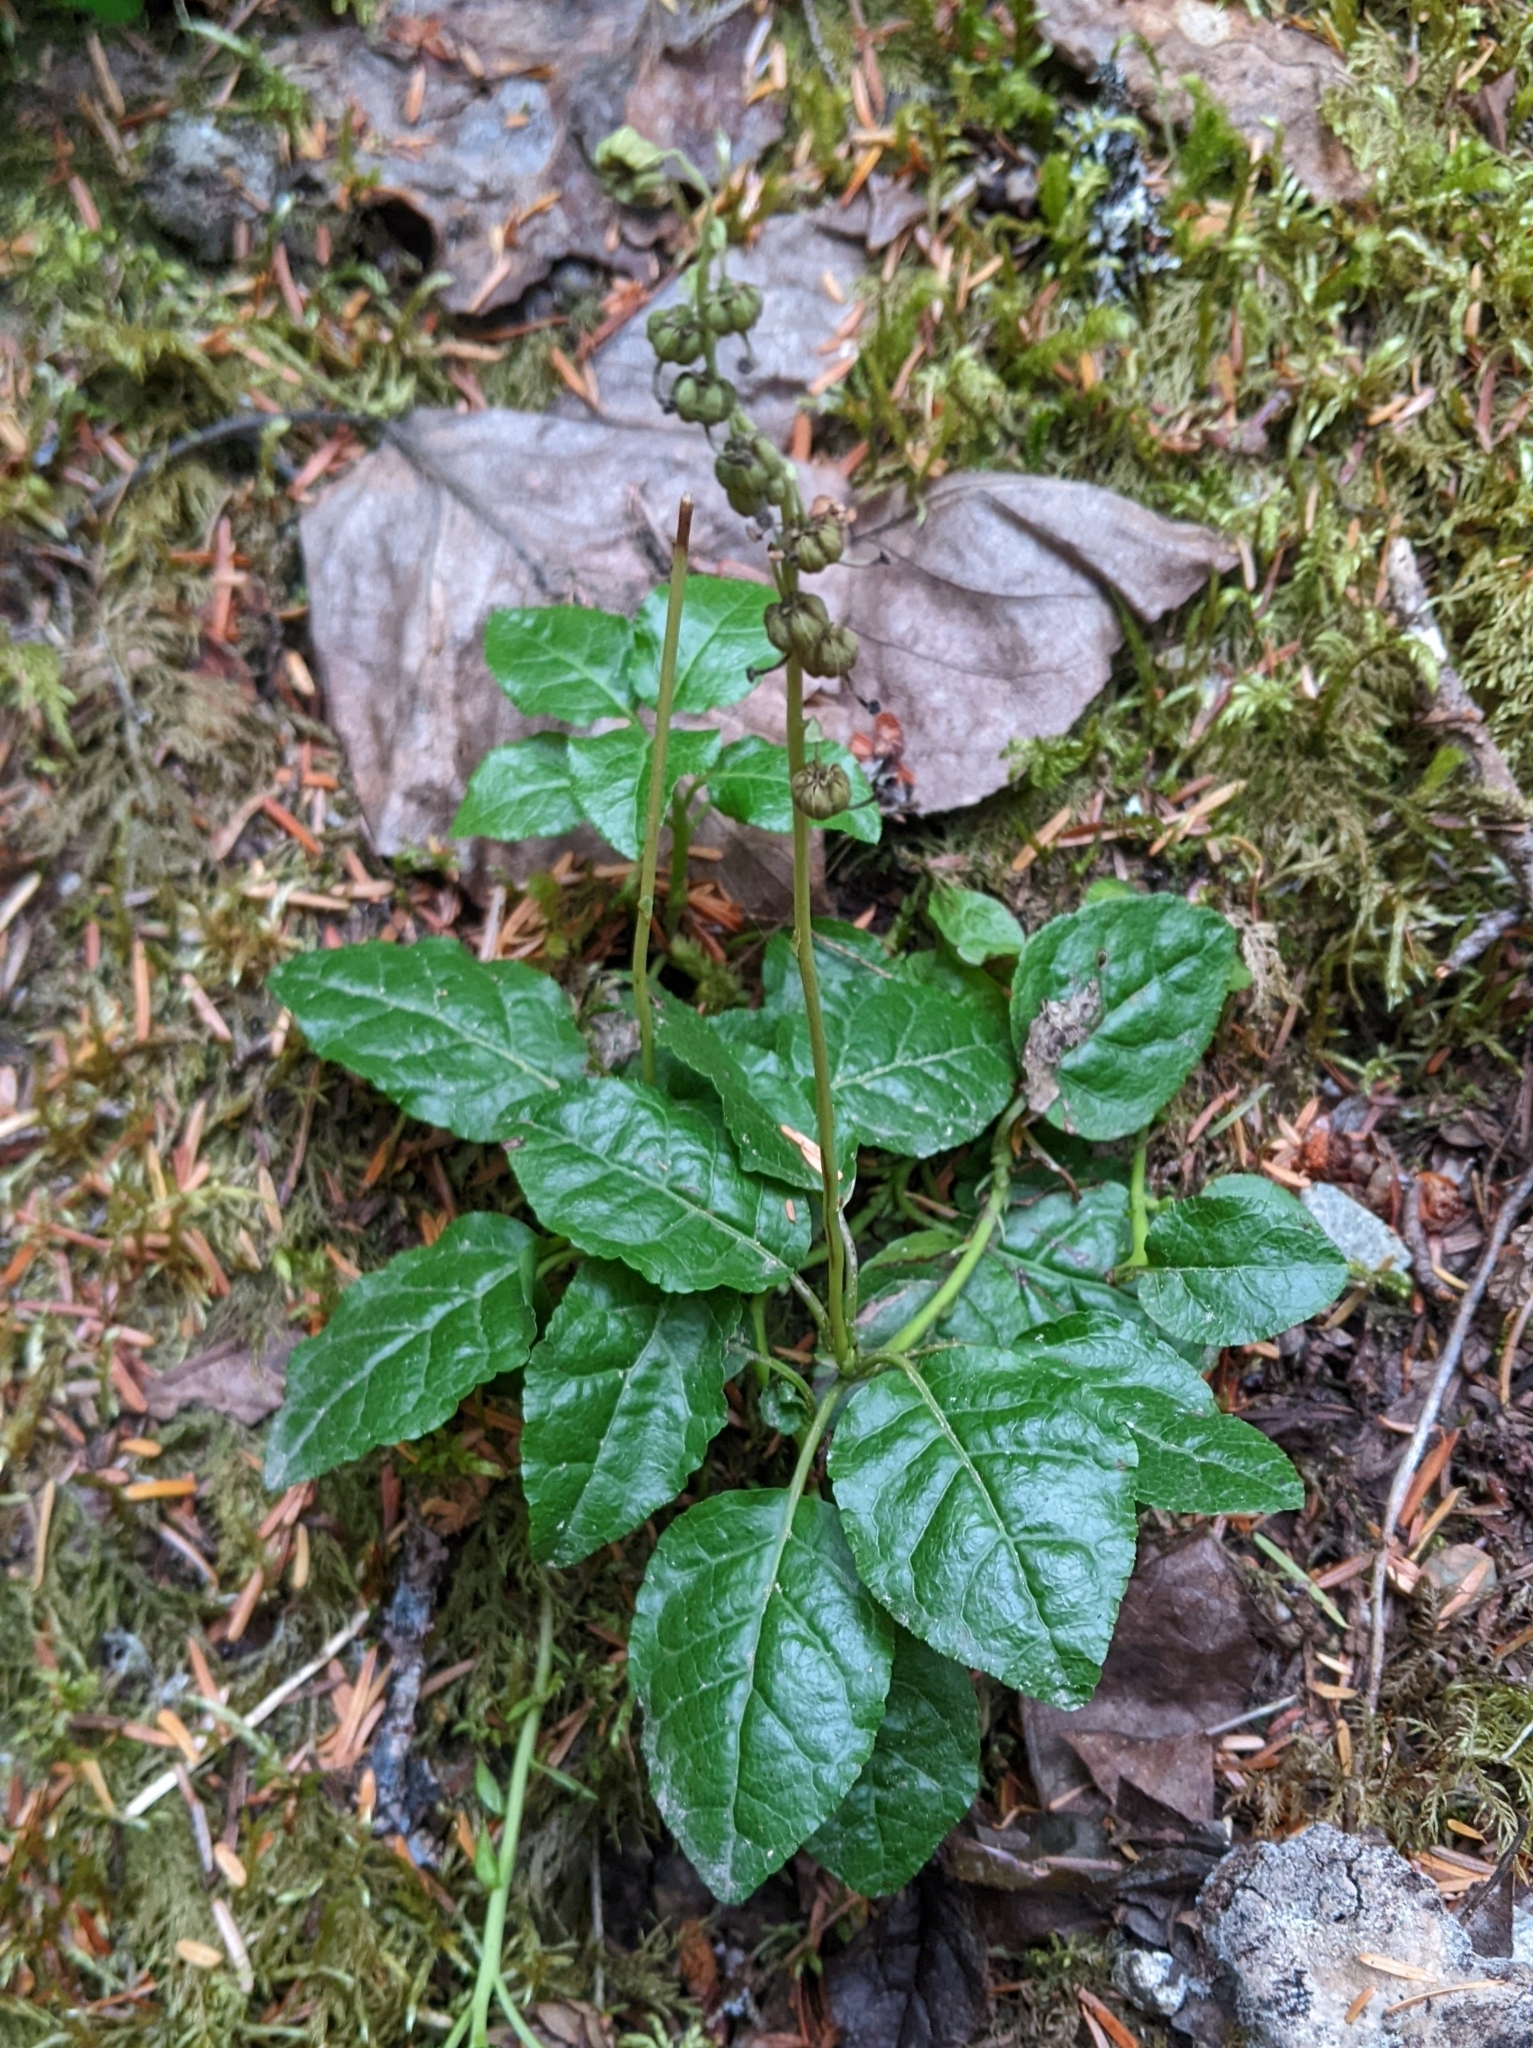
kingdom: Plantae
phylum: Tracheophyta
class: Magnoliopsida
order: Ericales
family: Ericaceae
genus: Orthilia
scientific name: Orthilia secunda
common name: One-sided orthilia
